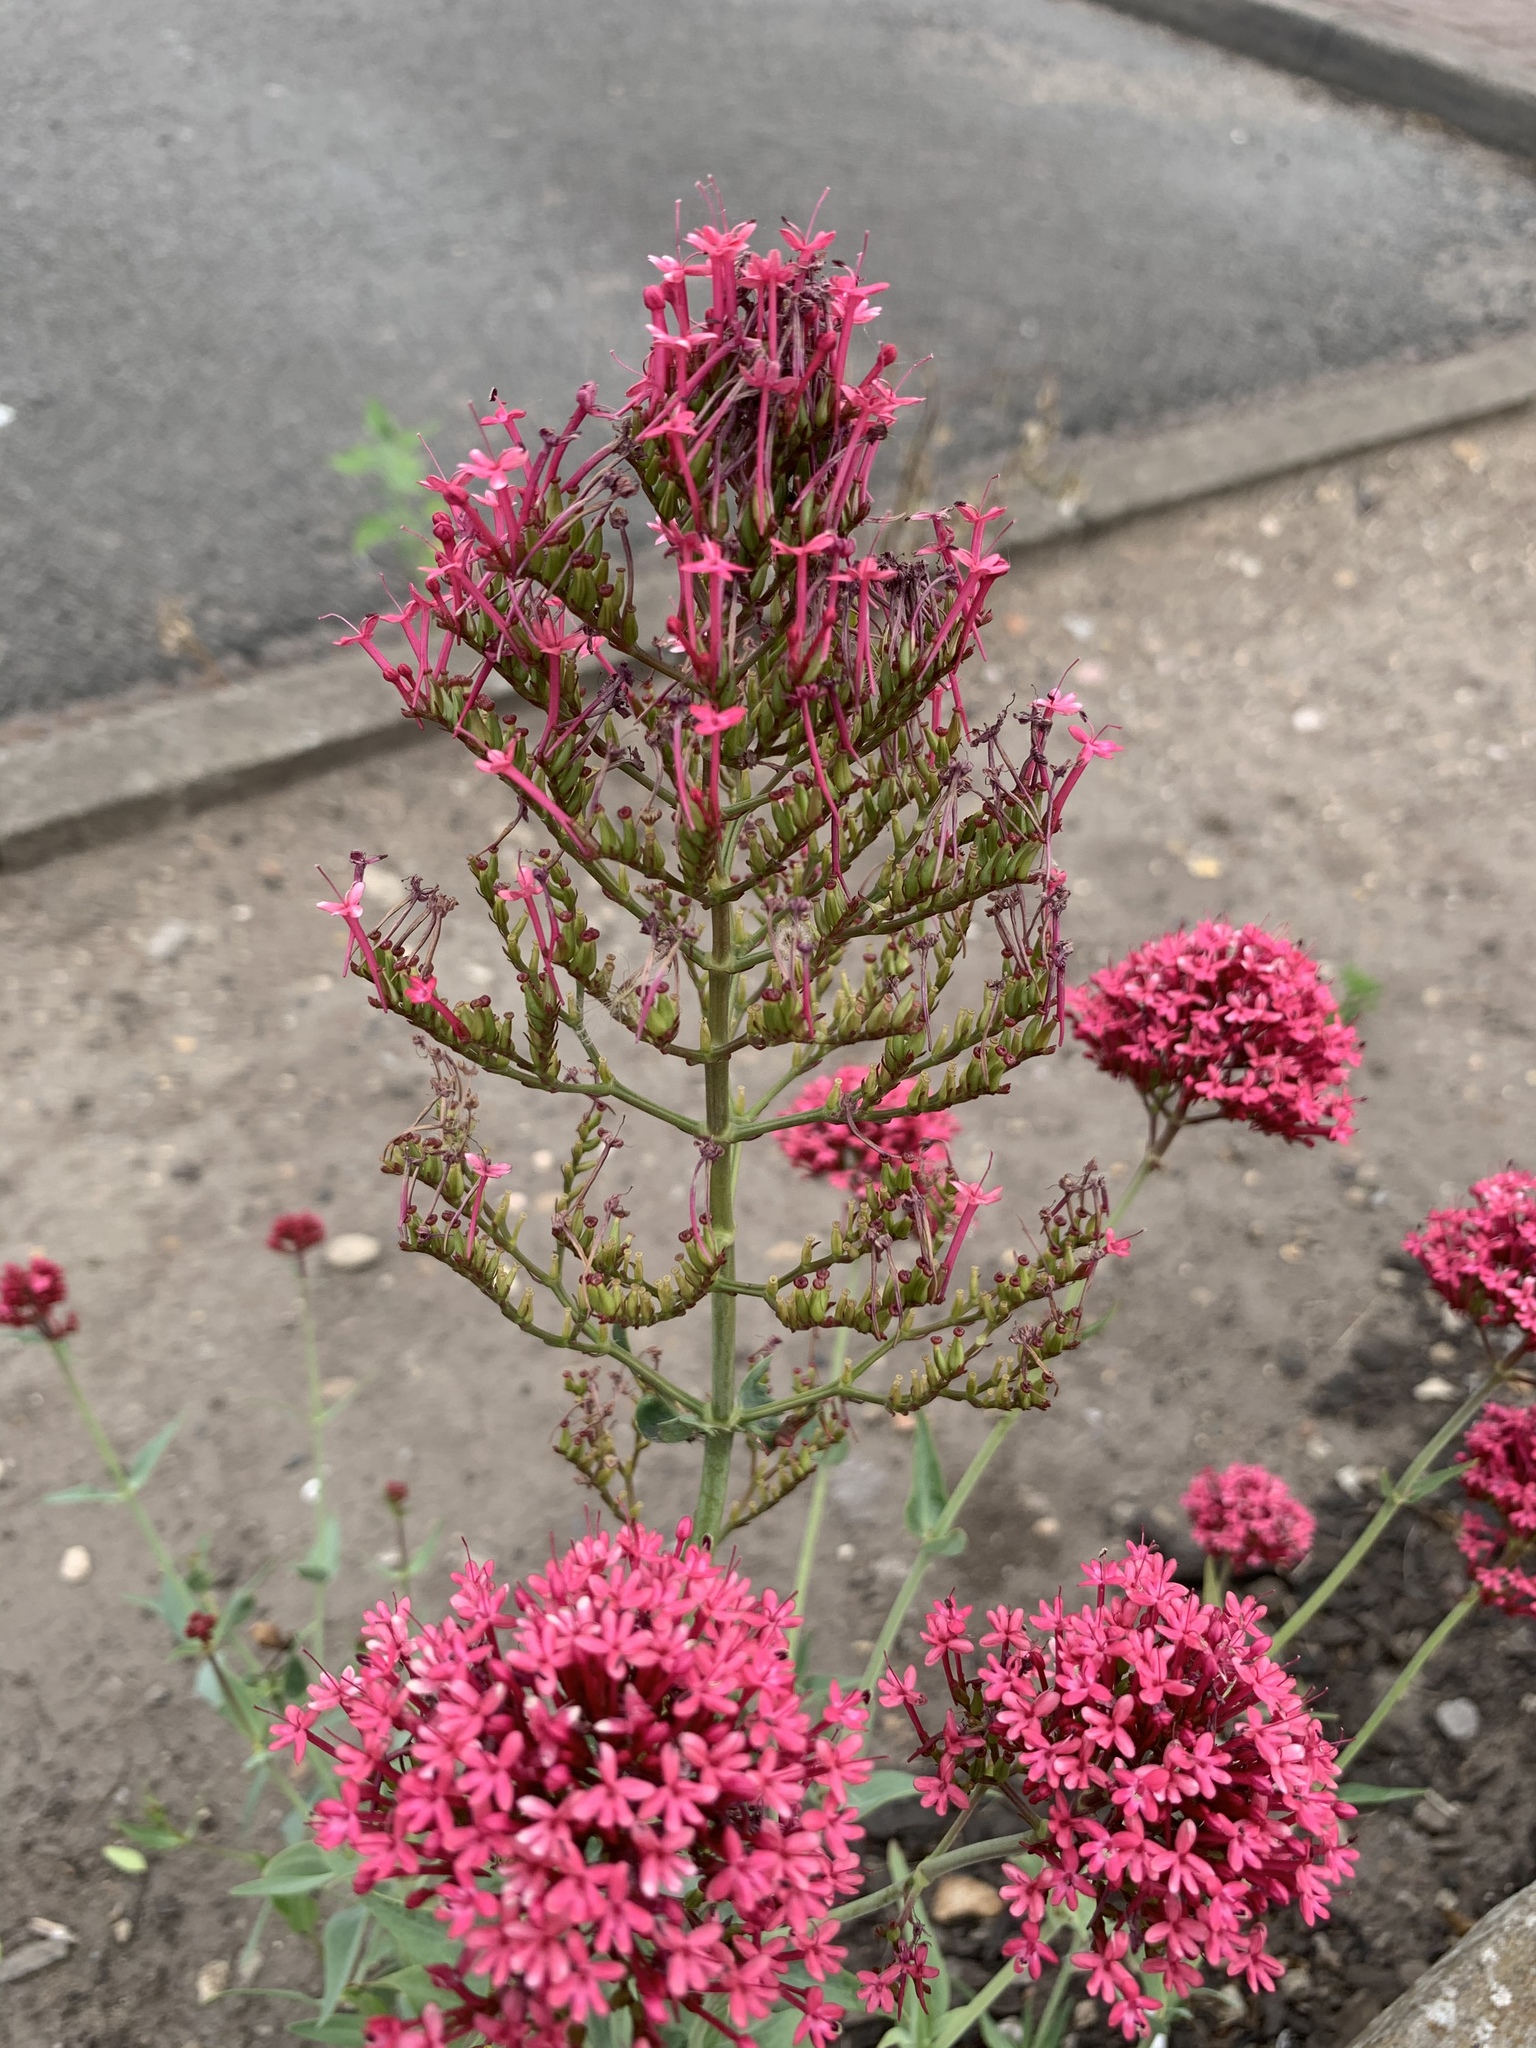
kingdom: Plantae
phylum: Tracheophyta
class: Magnoliopsida
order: Dipsacales
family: Caprifoliaceae
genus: Centranthus
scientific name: Centranthus ruber
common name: Red valerian
